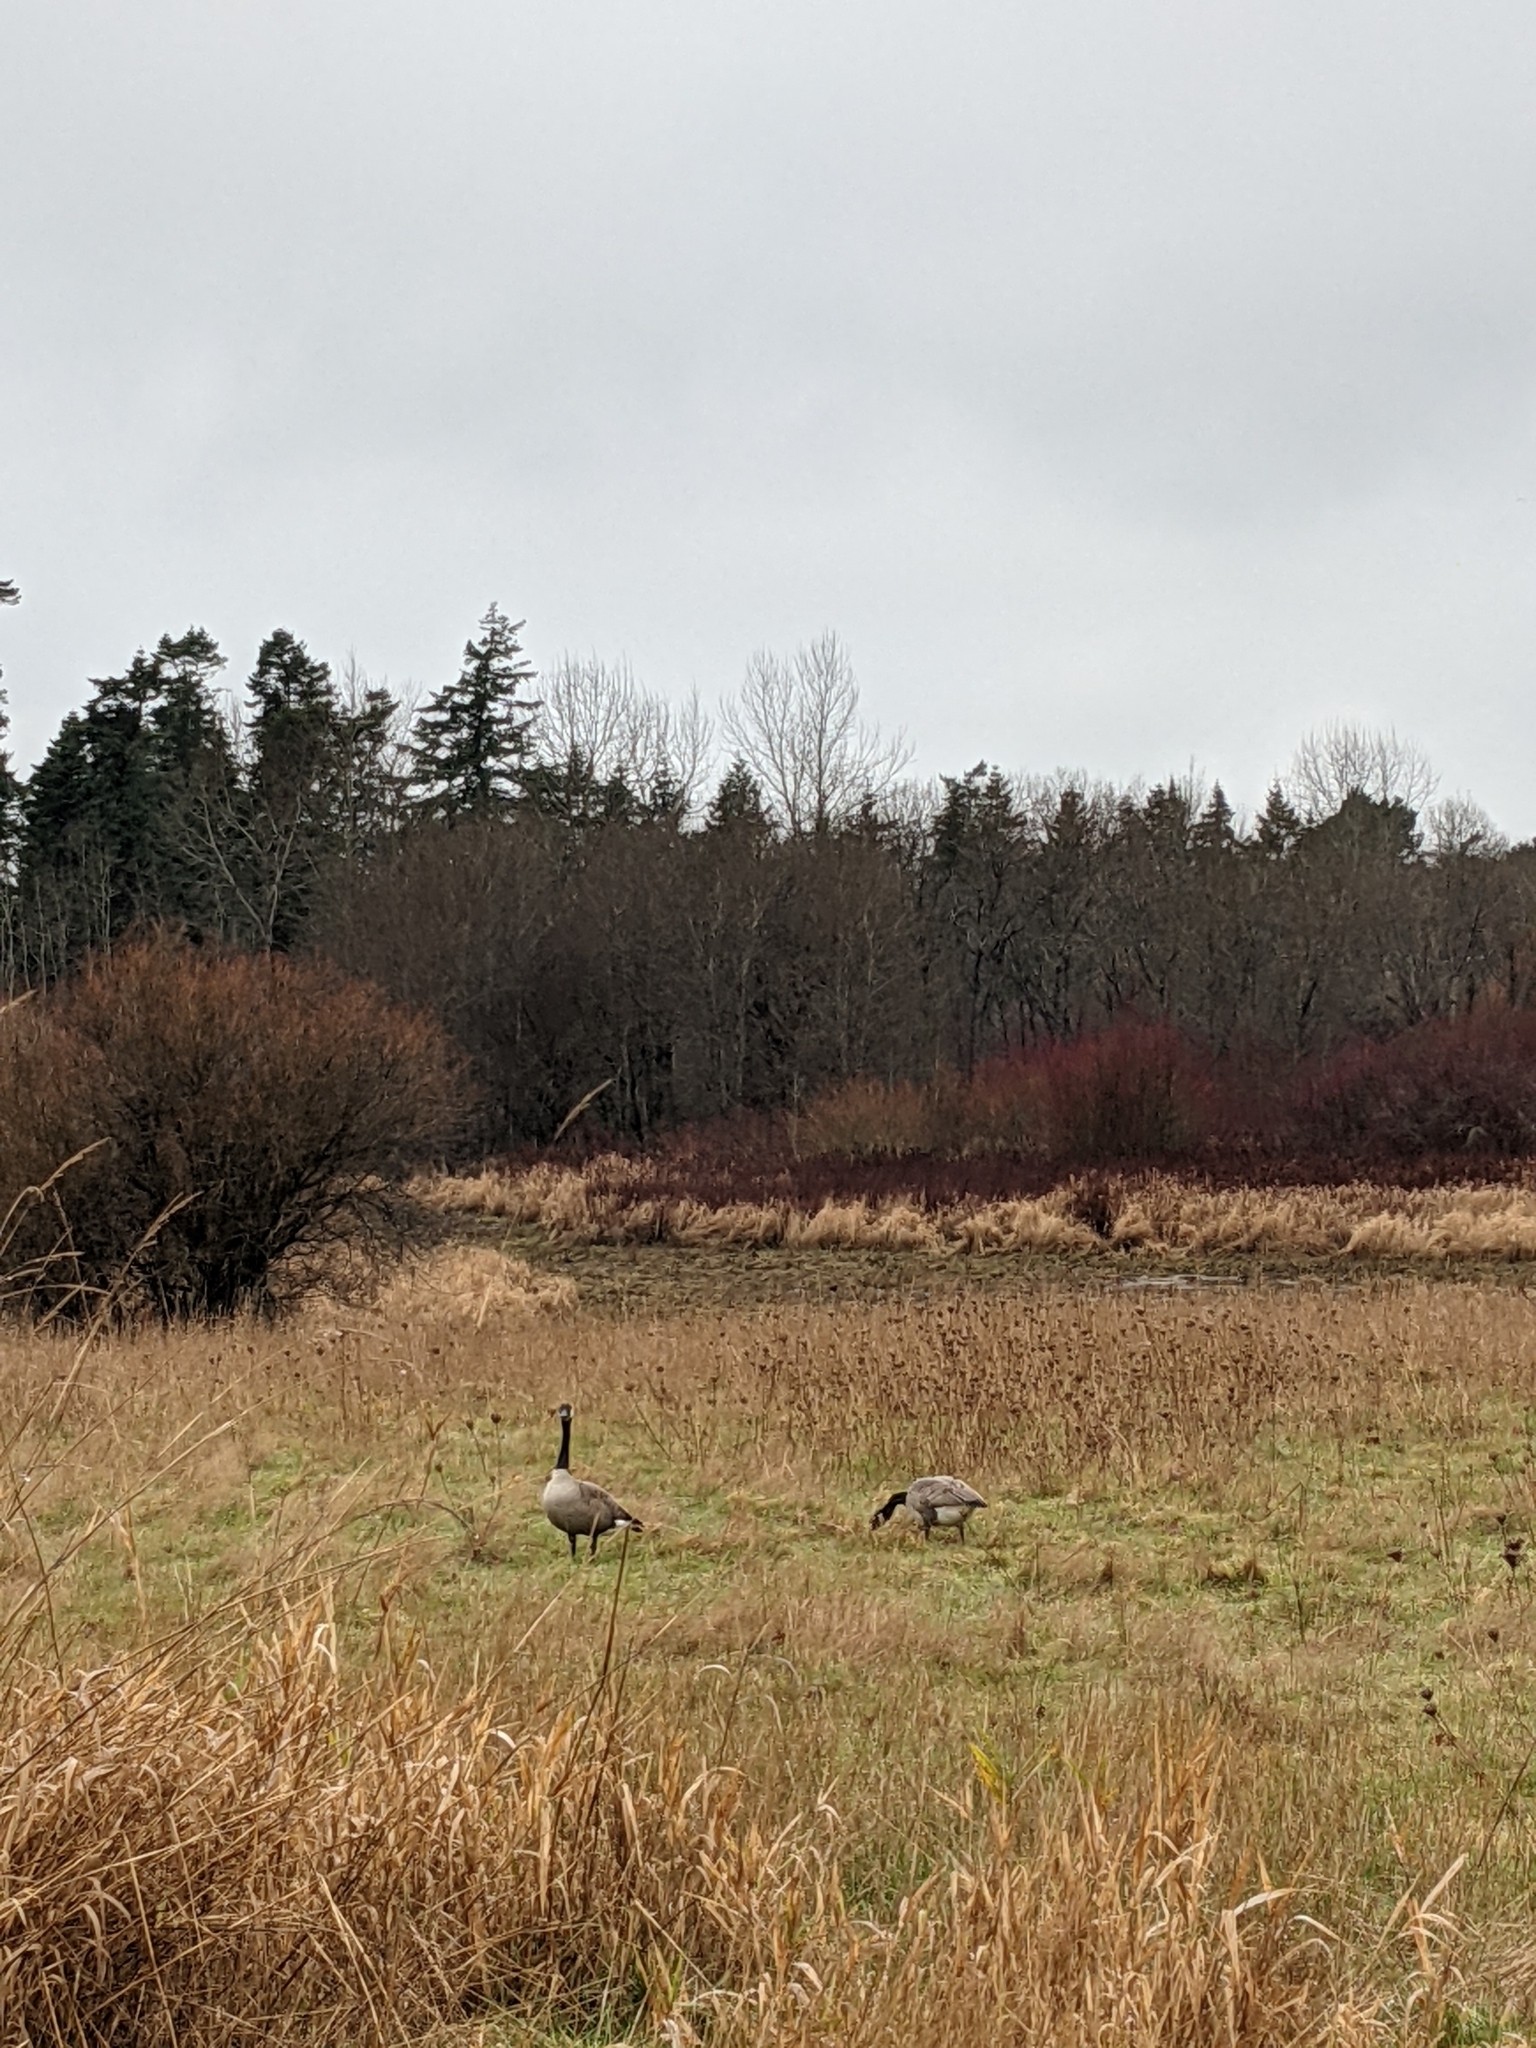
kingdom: Animalia
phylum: Chordata
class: Aves
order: Anseriformes
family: Anatidae
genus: Branta
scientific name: Branta canadensis
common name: Canada goose
